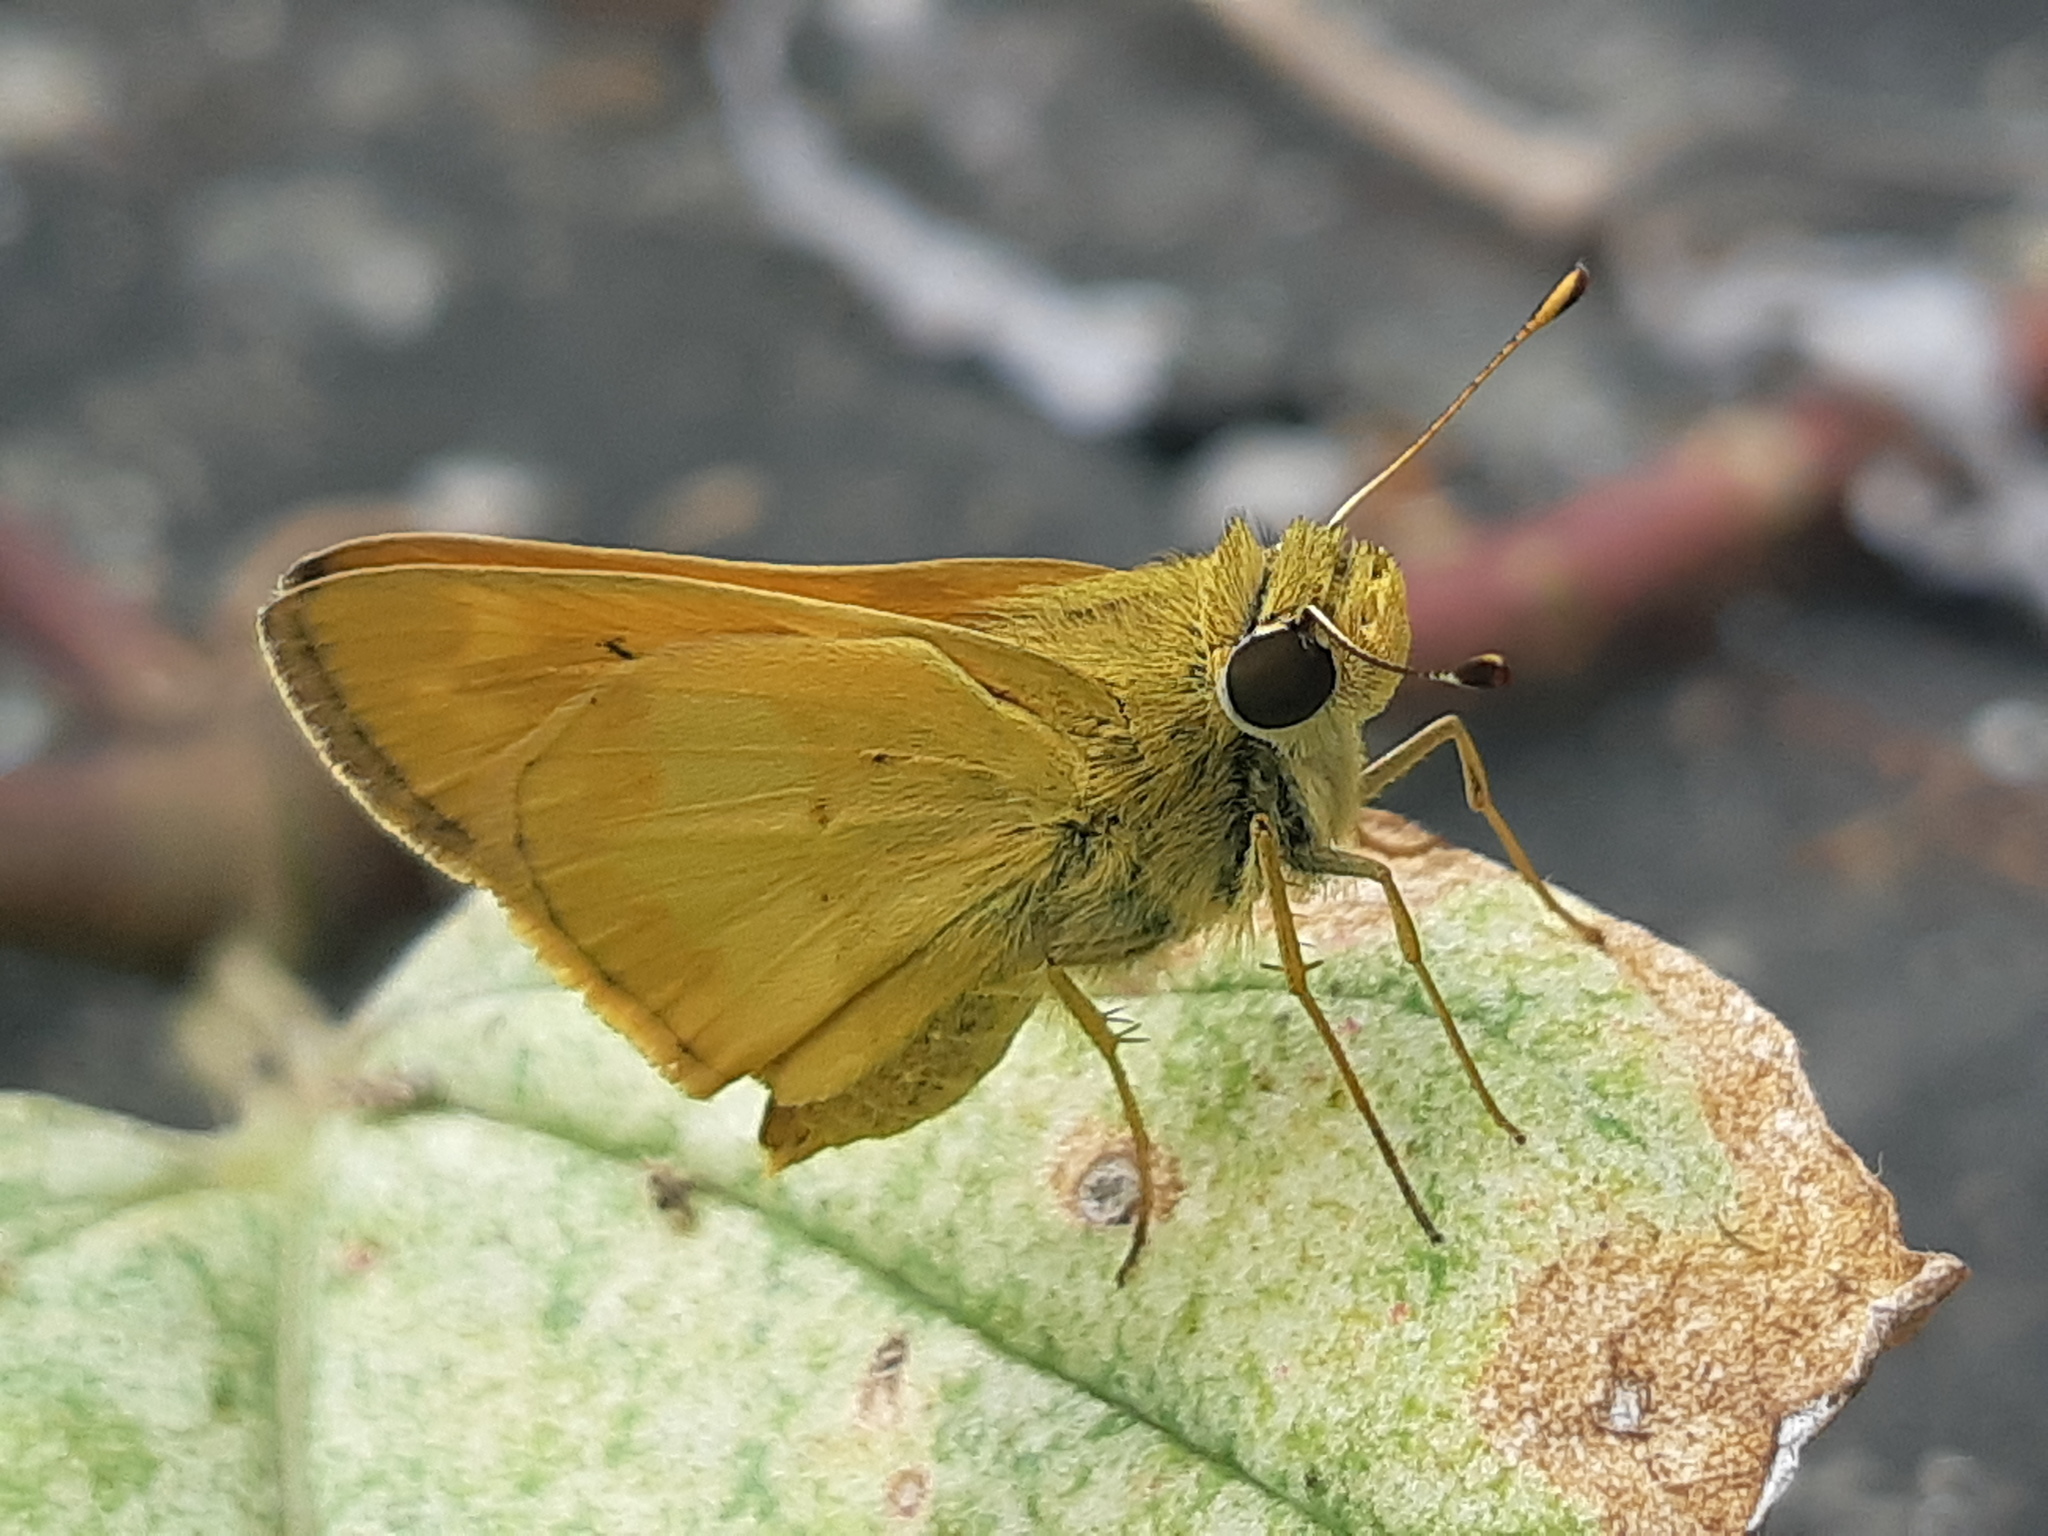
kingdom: Animalia
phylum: Arthropoda
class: Insecta
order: Lepidoptera
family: Hesperiidae
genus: Polites
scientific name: Polites vibex
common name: Whirlabout
